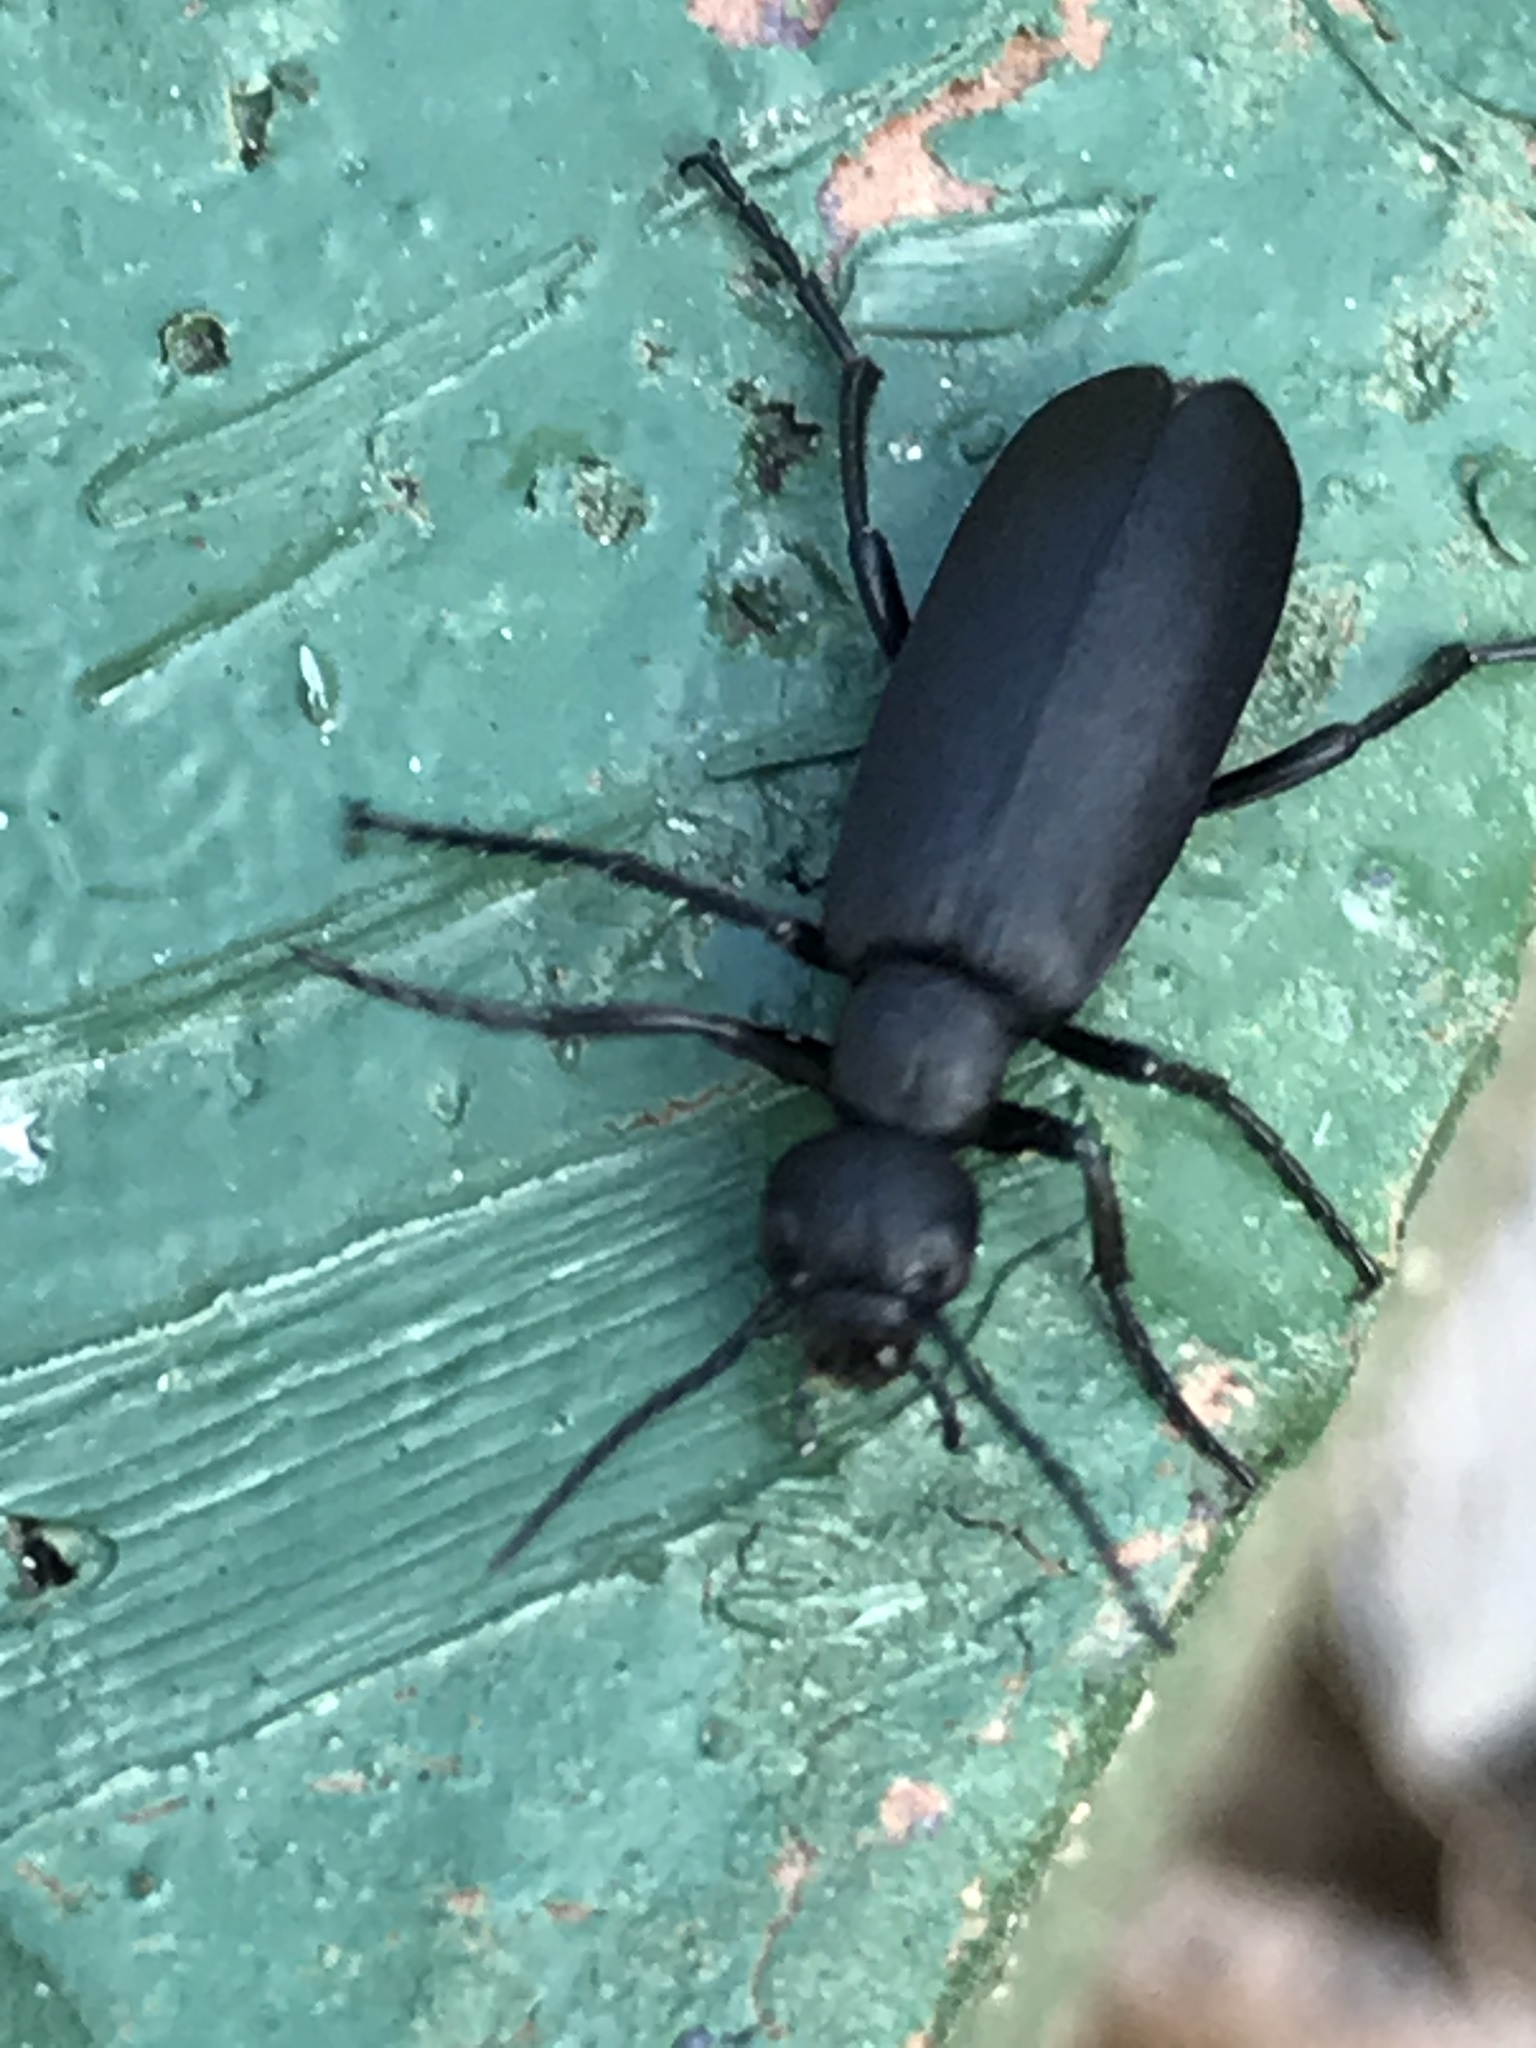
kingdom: Animalia
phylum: Arthropoda
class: Insecta
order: Coleoptera
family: Meloidae
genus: Epicauta
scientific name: Epicauta pensylvanica
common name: Black blister beetle
